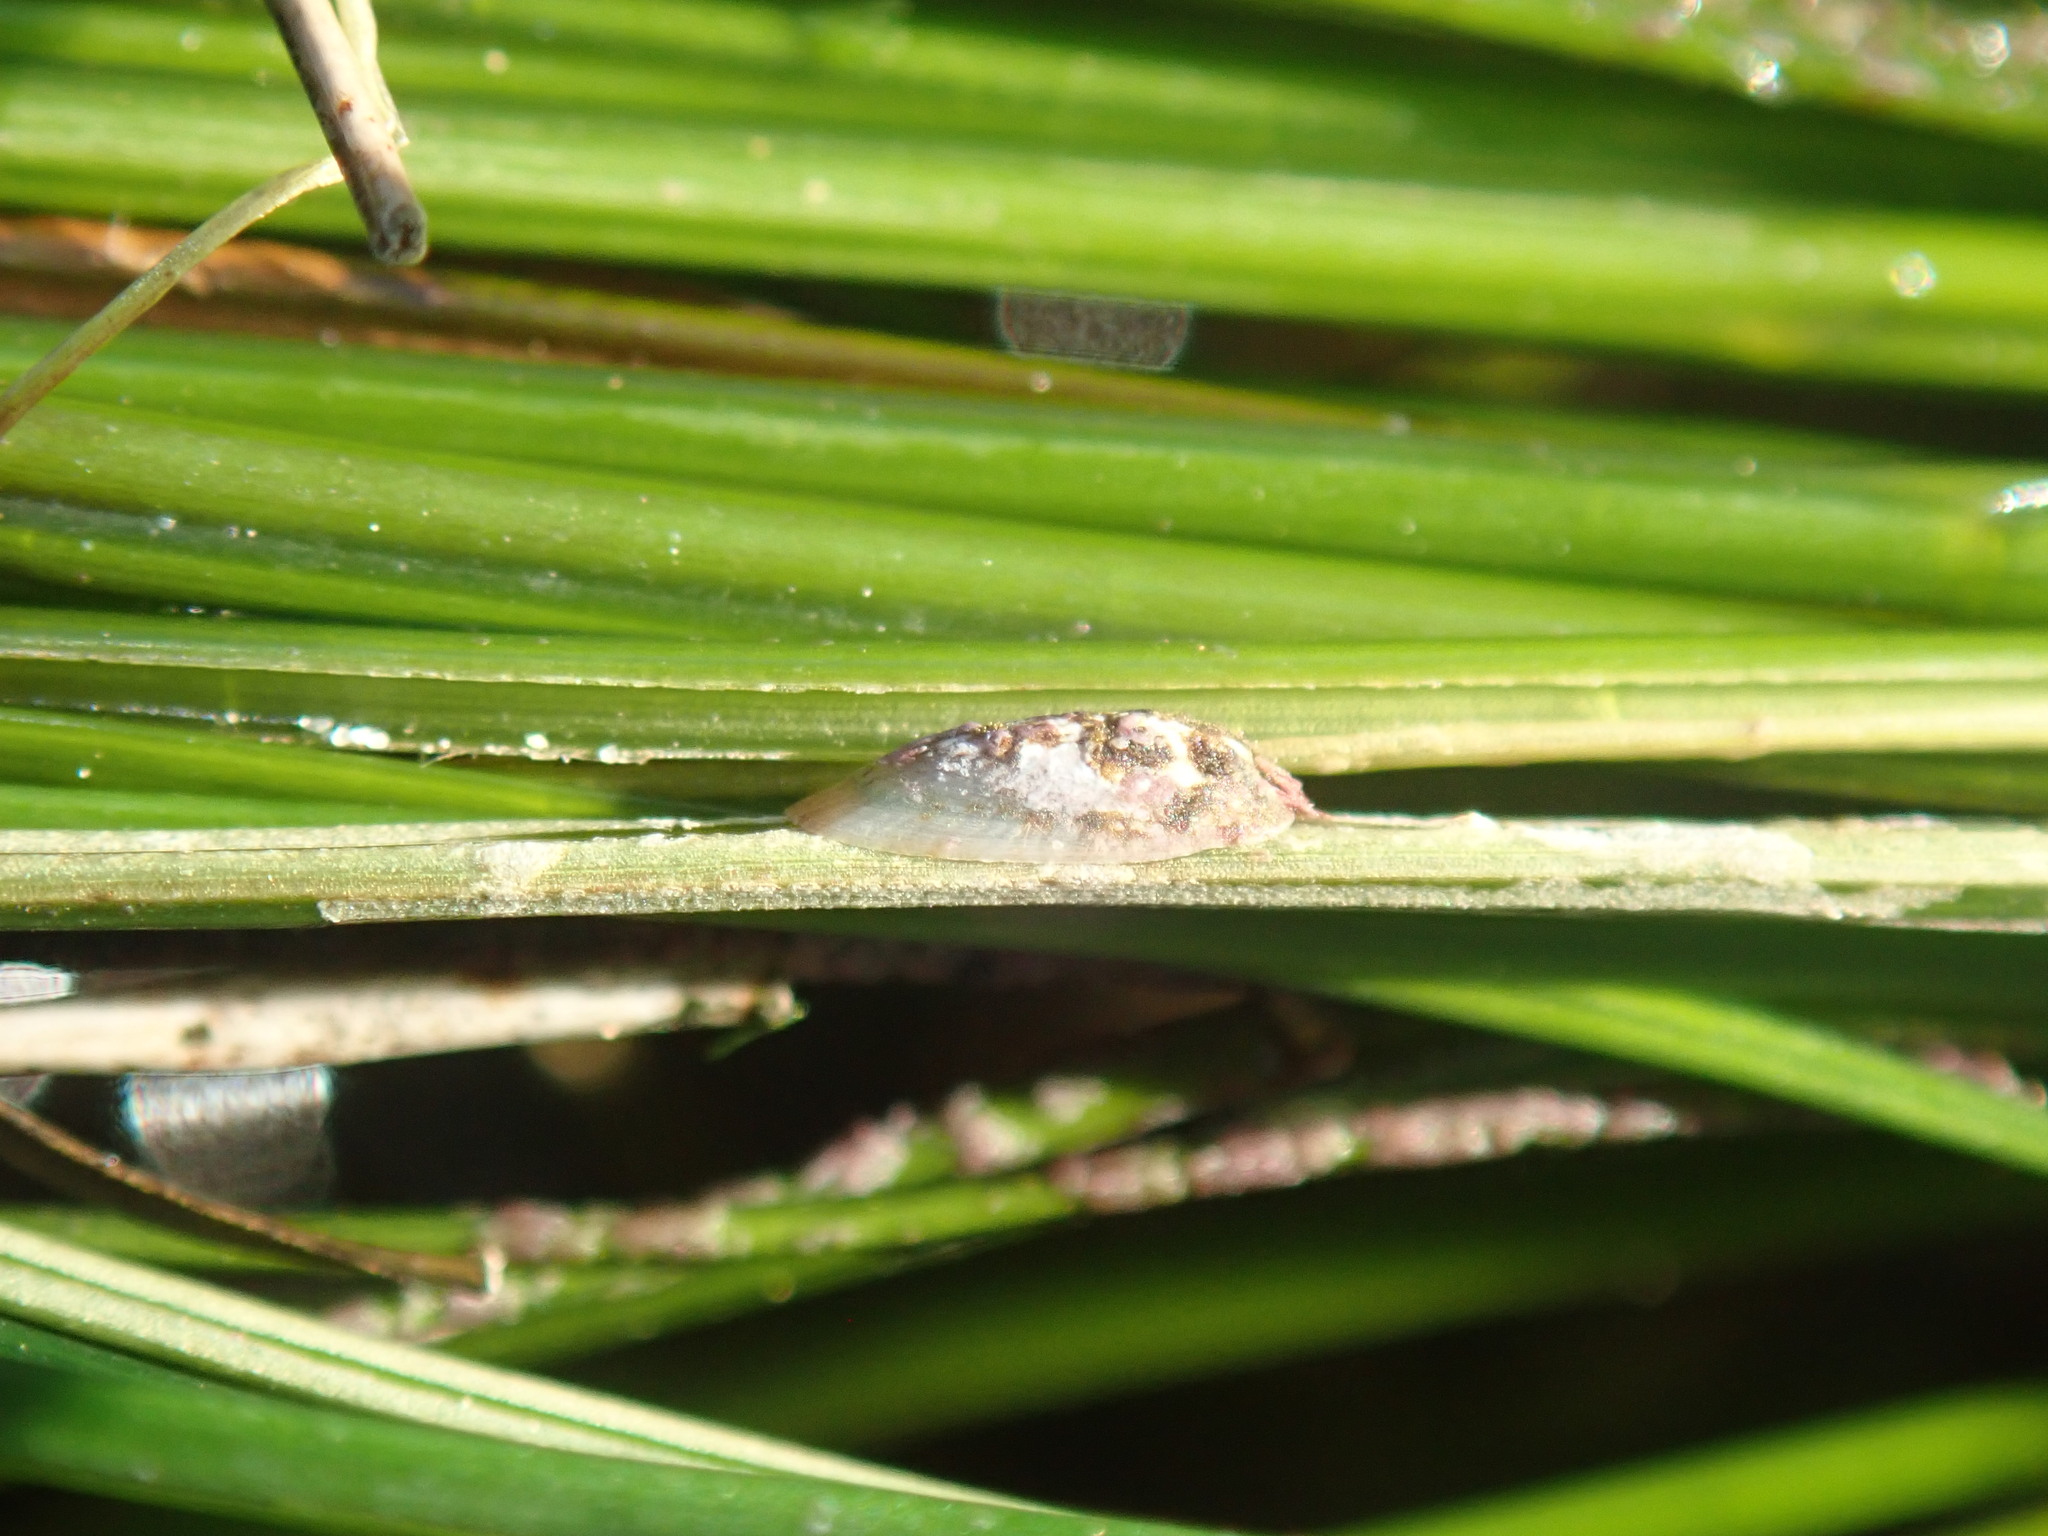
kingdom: Animalia
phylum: Mollusca
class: Gastropoda
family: Lottiidae
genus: Tectura
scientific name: Tectura paleacea
